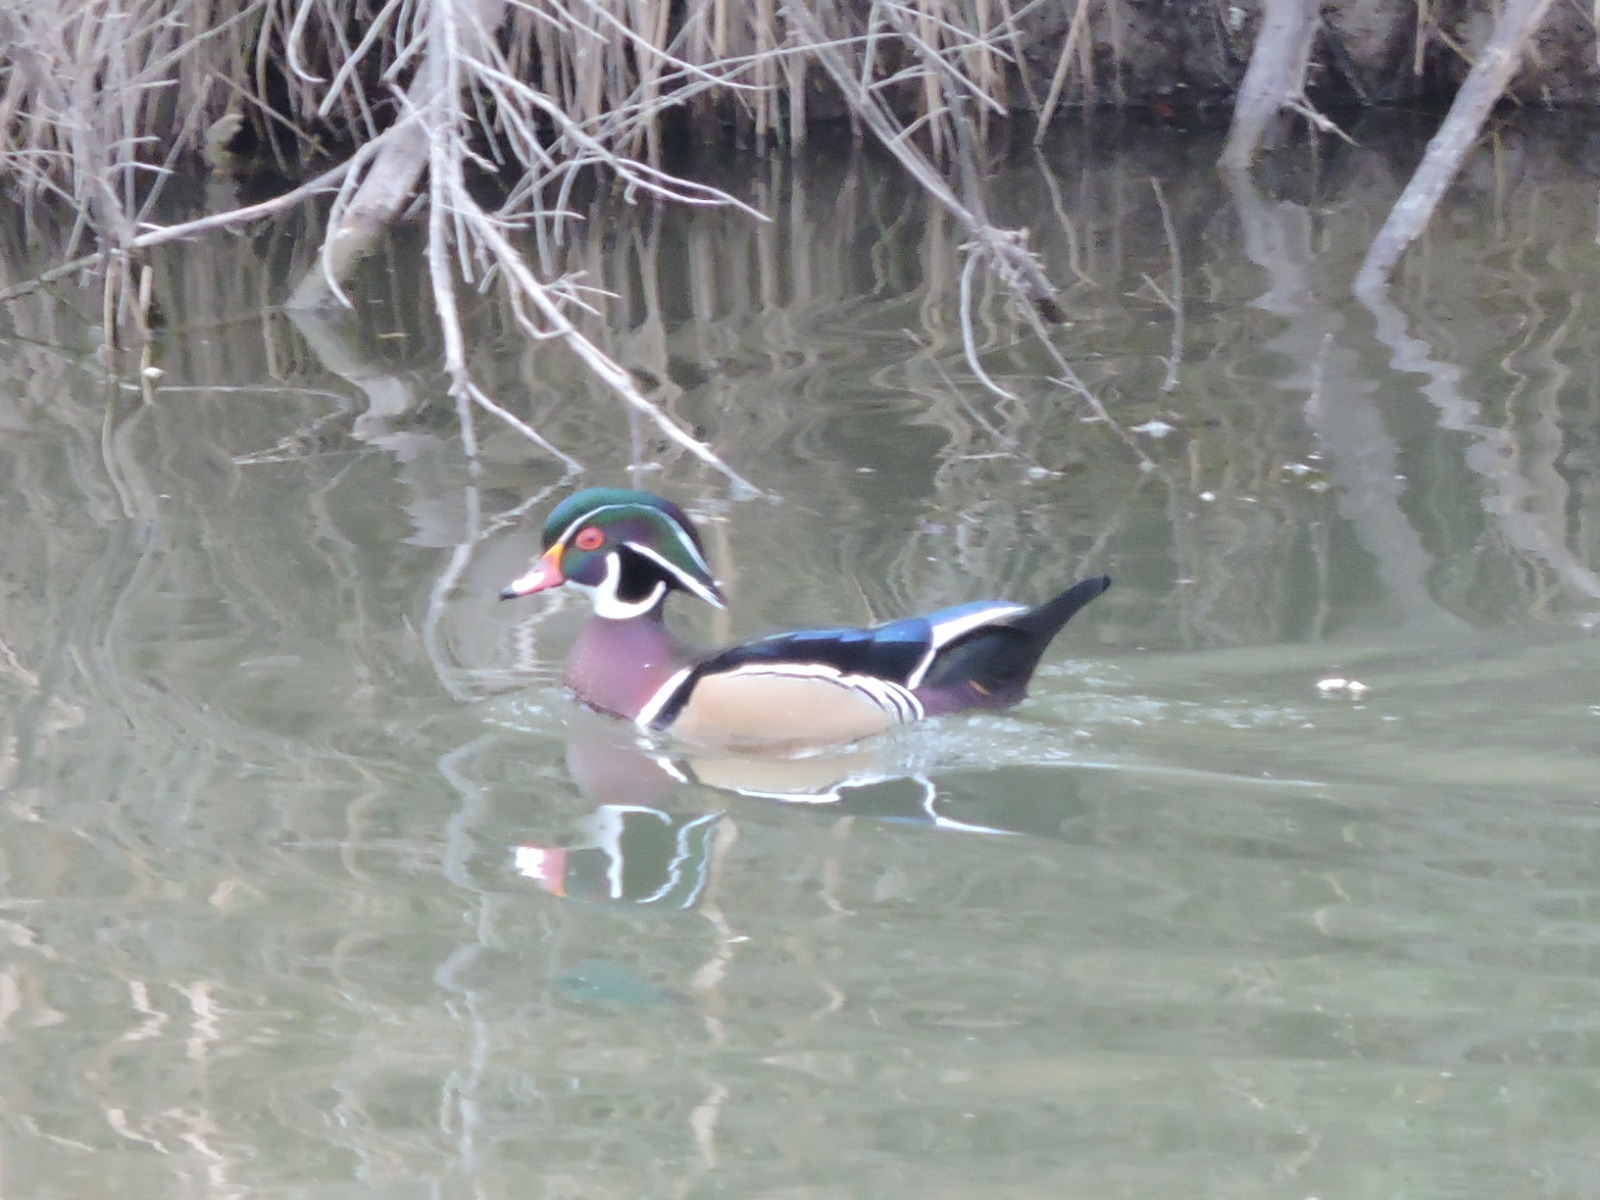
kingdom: Animalia
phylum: Chordata
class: Aves
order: Anseriformes
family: Anatidae
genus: Aix
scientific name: Aix sponsa
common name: Wood duck
